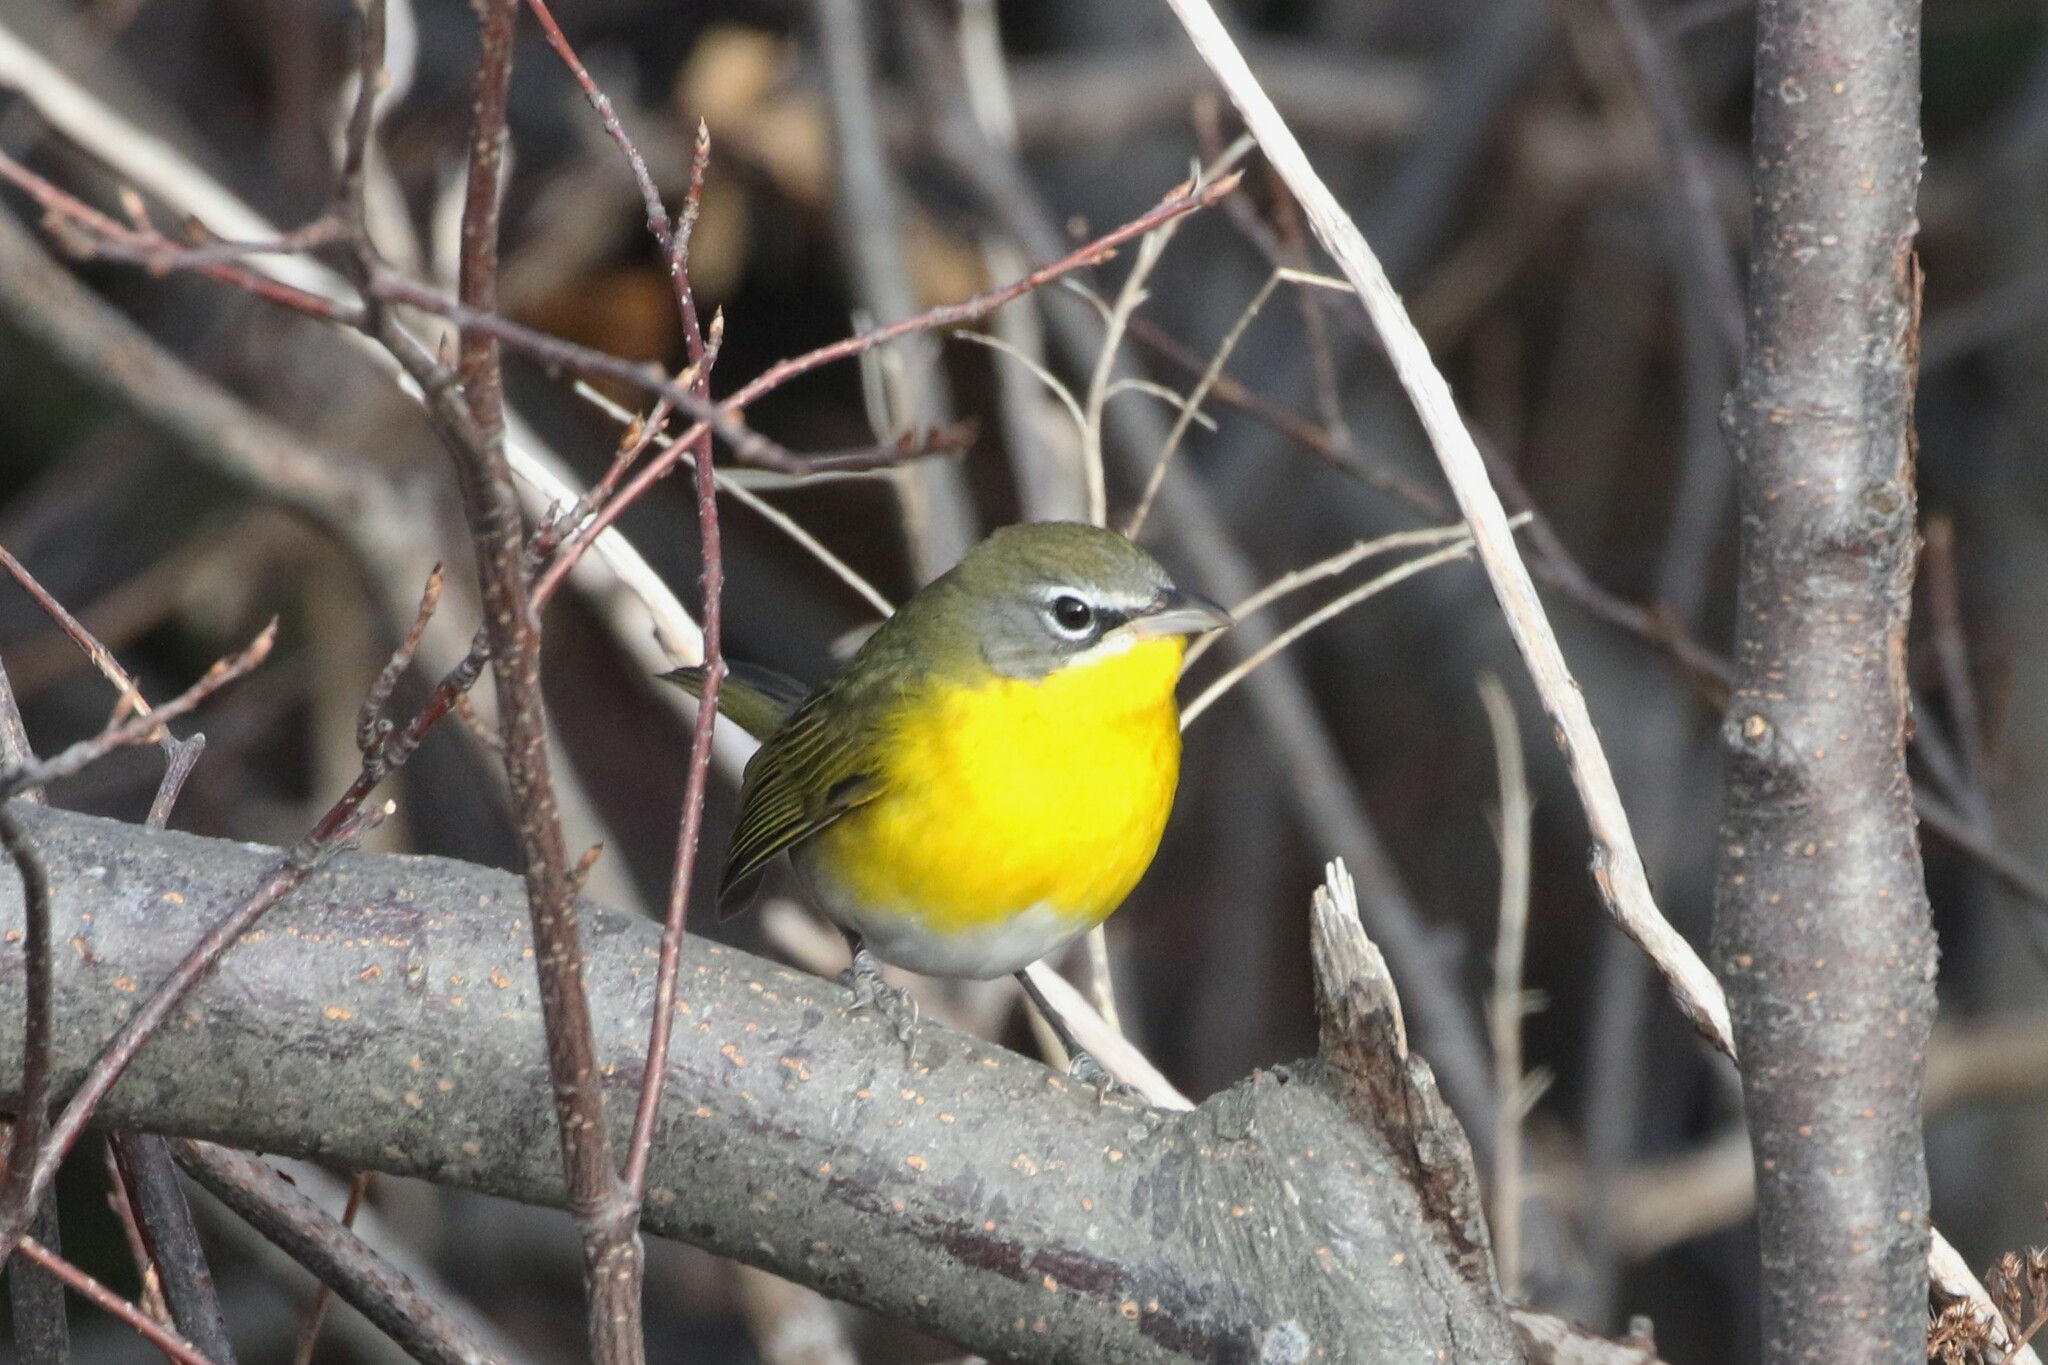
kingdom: Animalia
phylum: Chordata
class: Aves
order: Passeriformes
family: Parulidae
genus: Icteria
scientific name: Icteria virens
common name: Yellow-breasted chat
